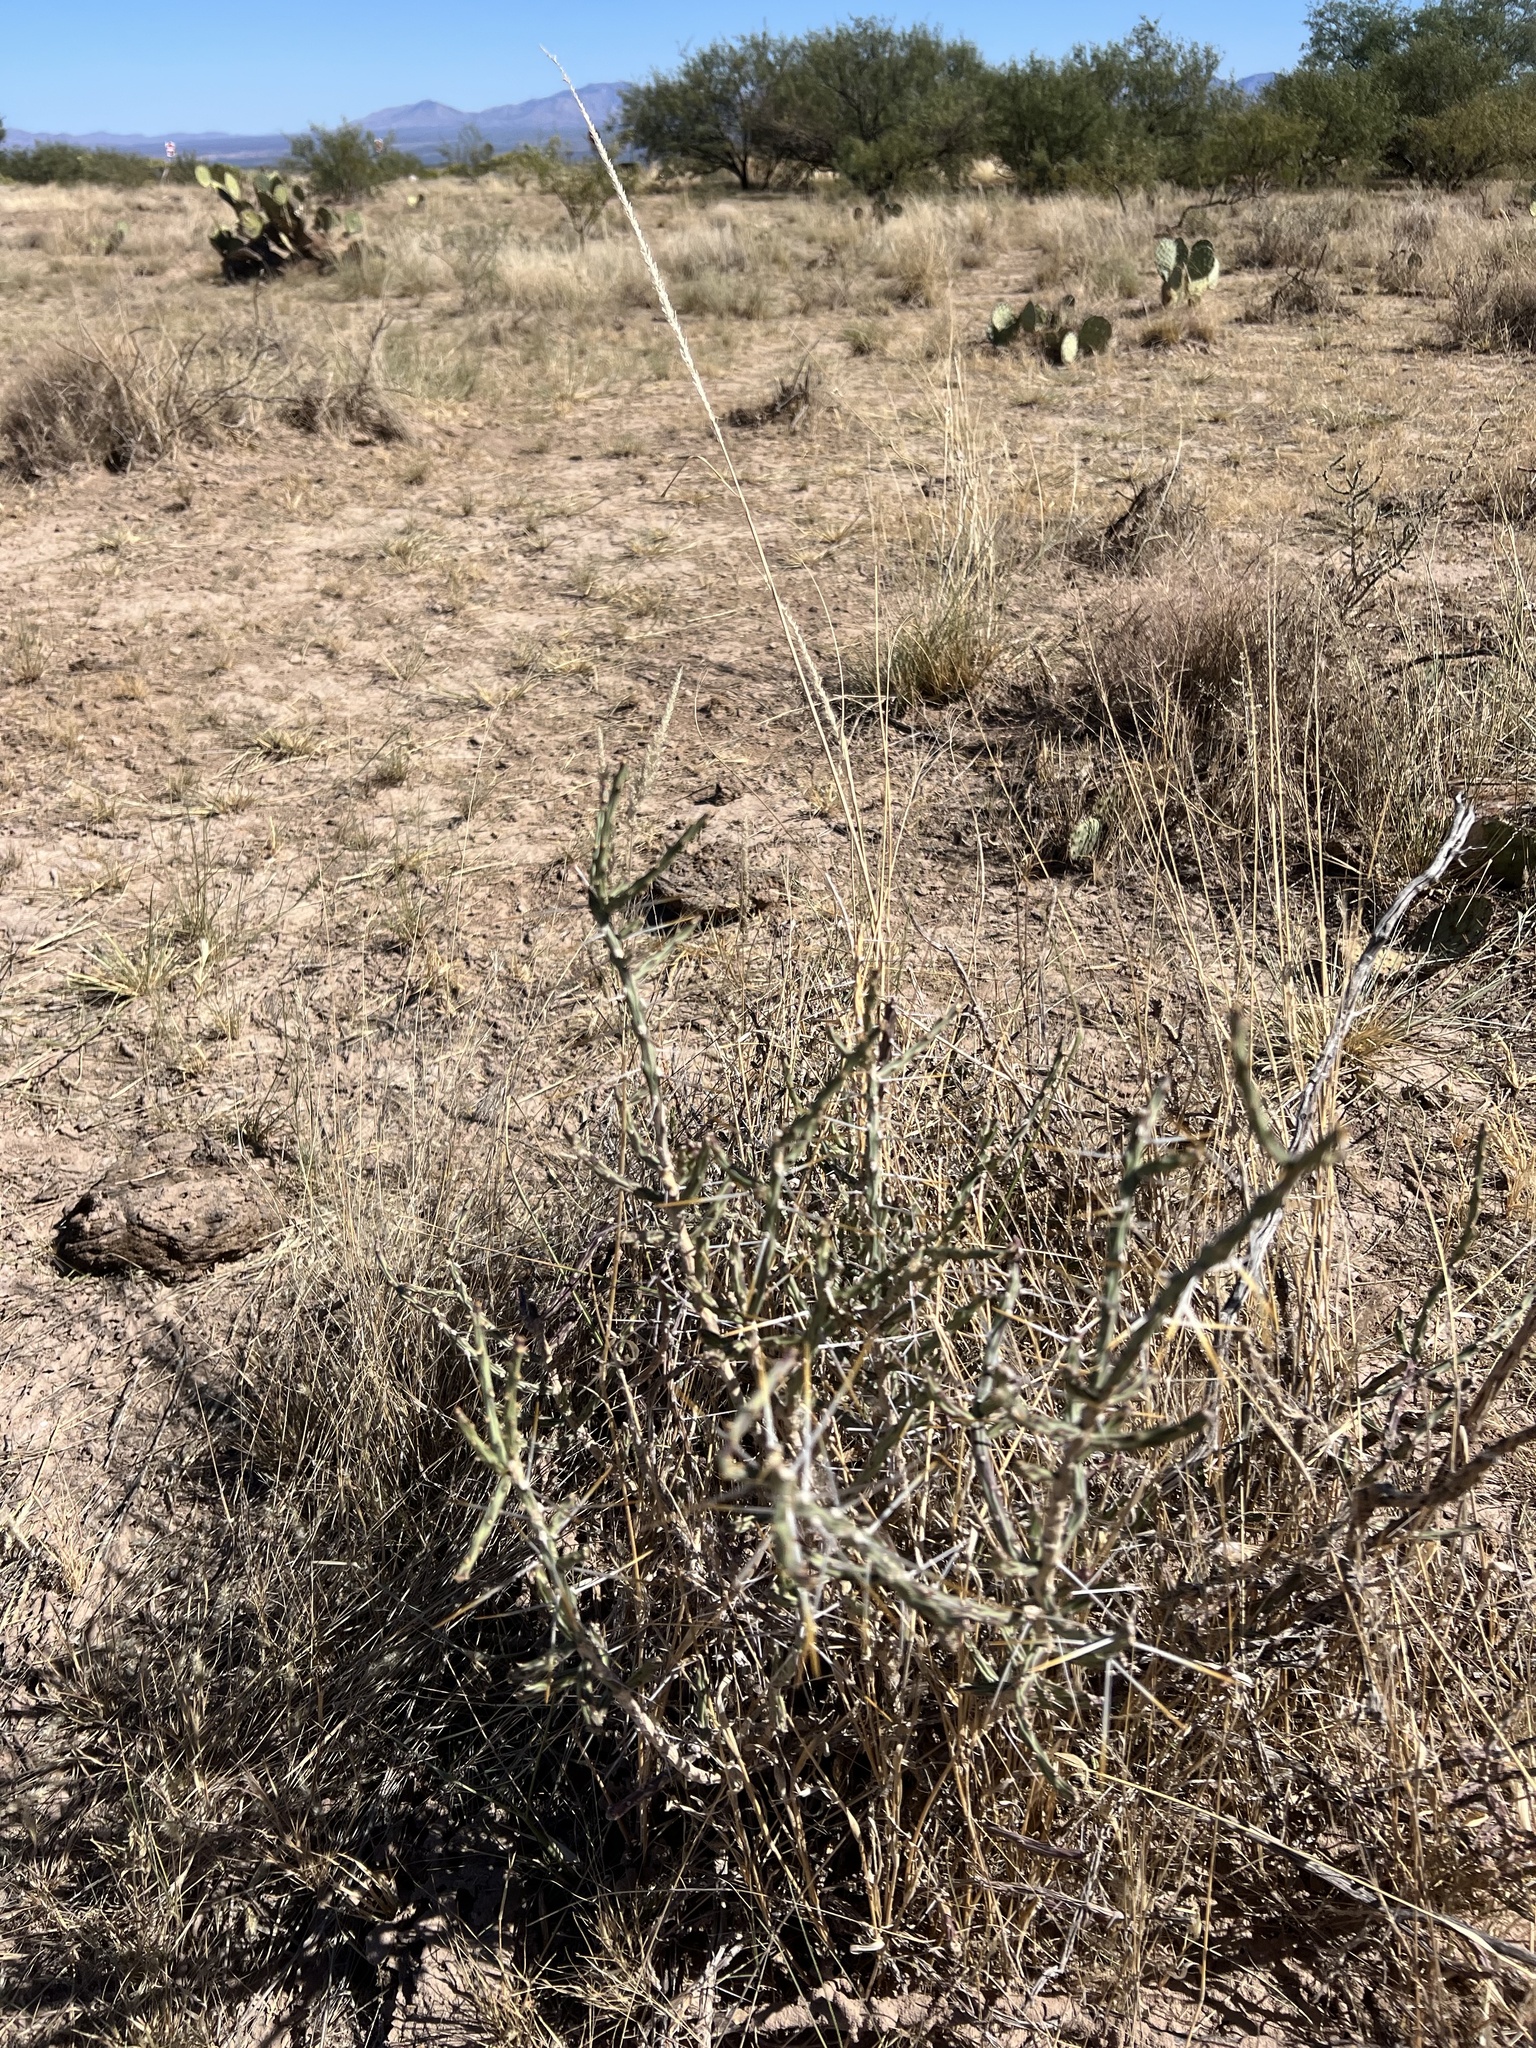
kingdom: Plantae
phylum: Tracheophyta
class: Magnoliopsida
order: Caryophyllales
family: Cactaceae
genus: Cylindropuntia
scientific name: Cylindropuntia leptocaulis
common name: Christmas cactus
